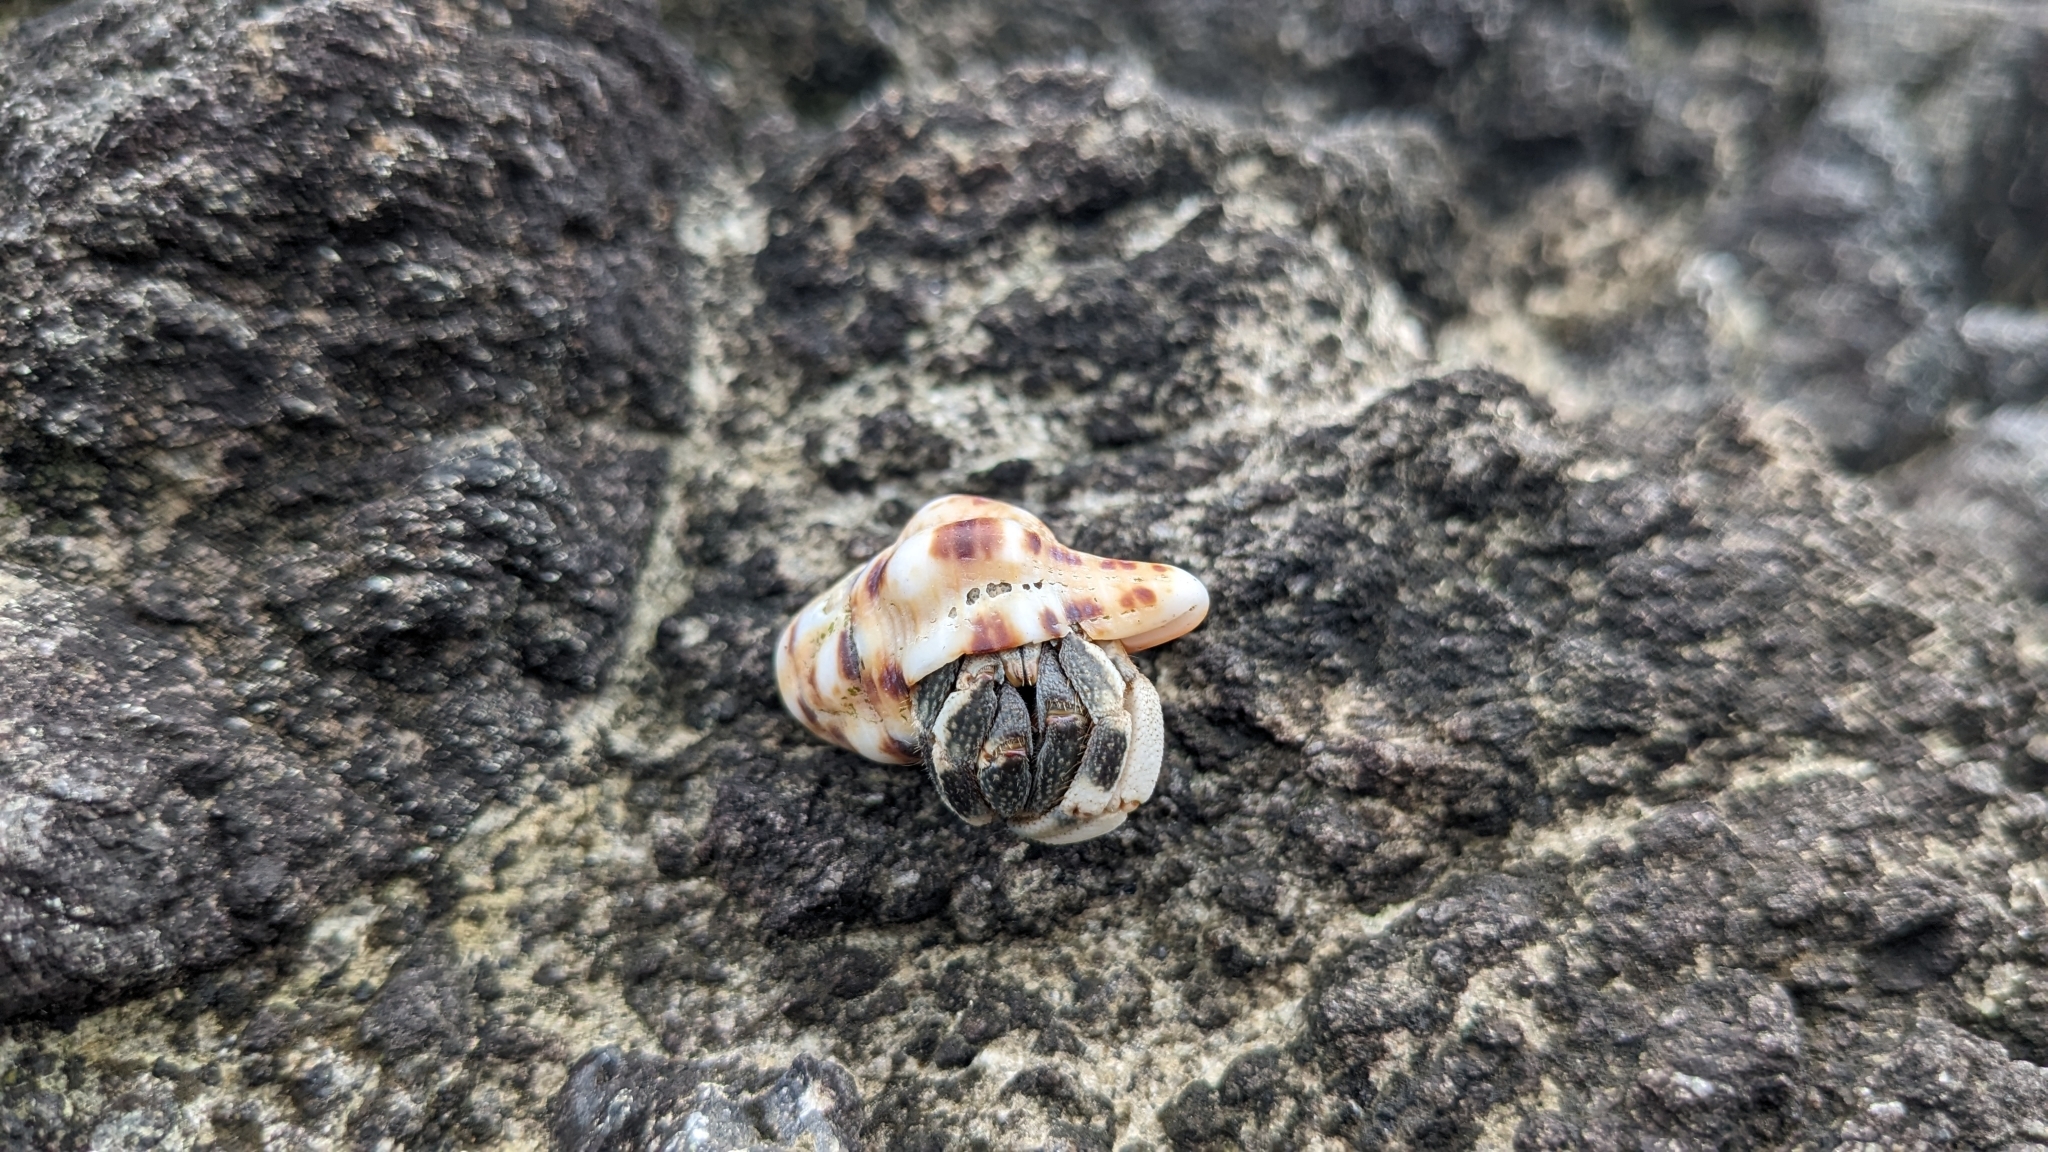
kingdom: Animalia
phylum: Arthropoda
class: Malacostraca
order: Decapoda
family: Coenobitidae
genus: Coenobita
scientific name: Coenobita rugosus
